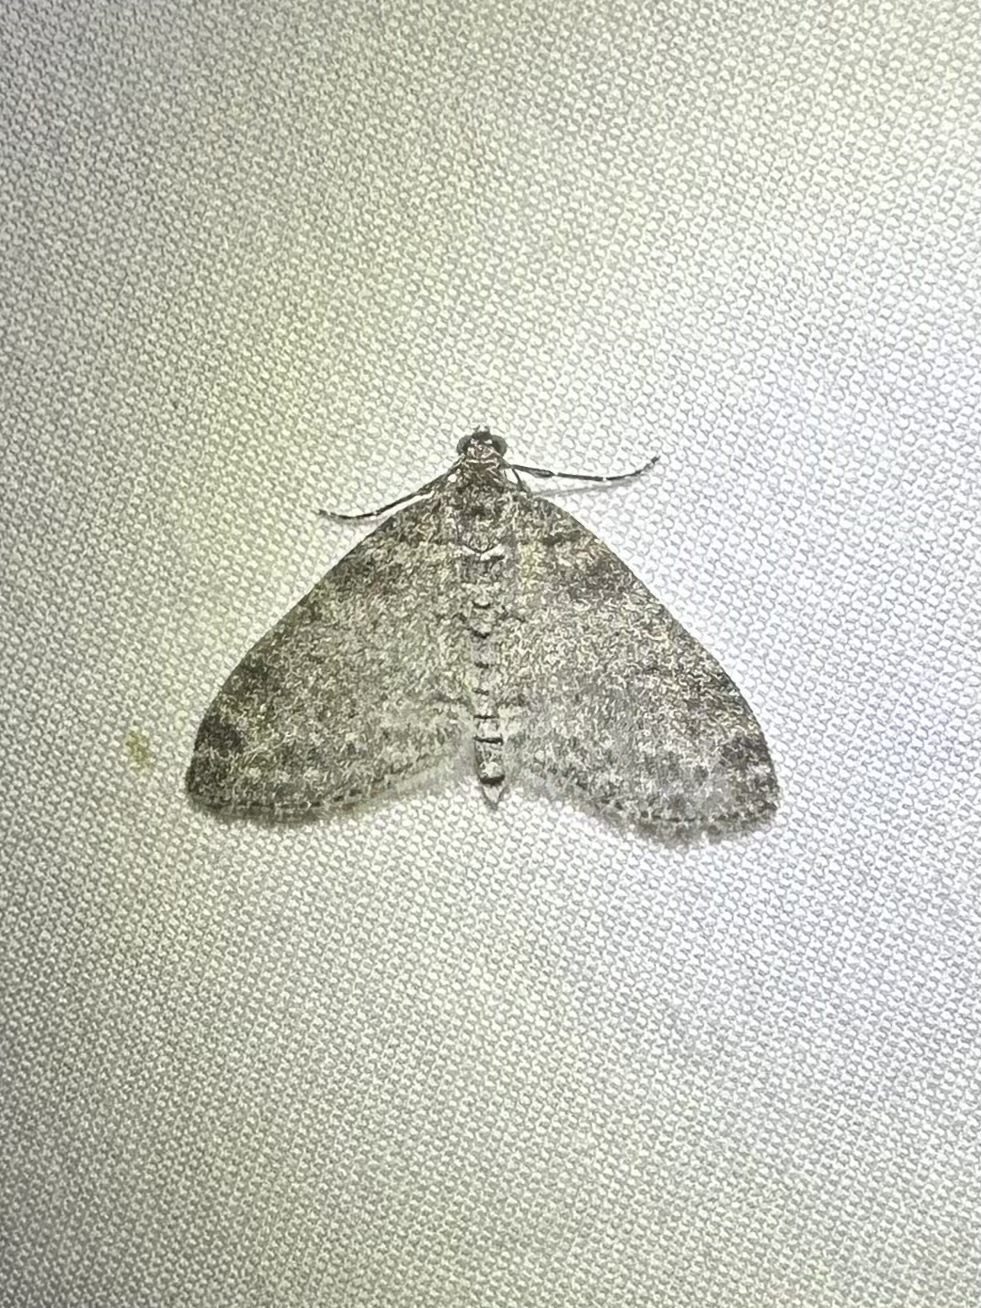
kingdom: Animalia
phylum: Arthropoda
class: Insecta
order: Lepidoptera
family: Geometridae
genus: Lobophora
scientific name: Lobophora nivigerata
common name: Powdered bigwing
